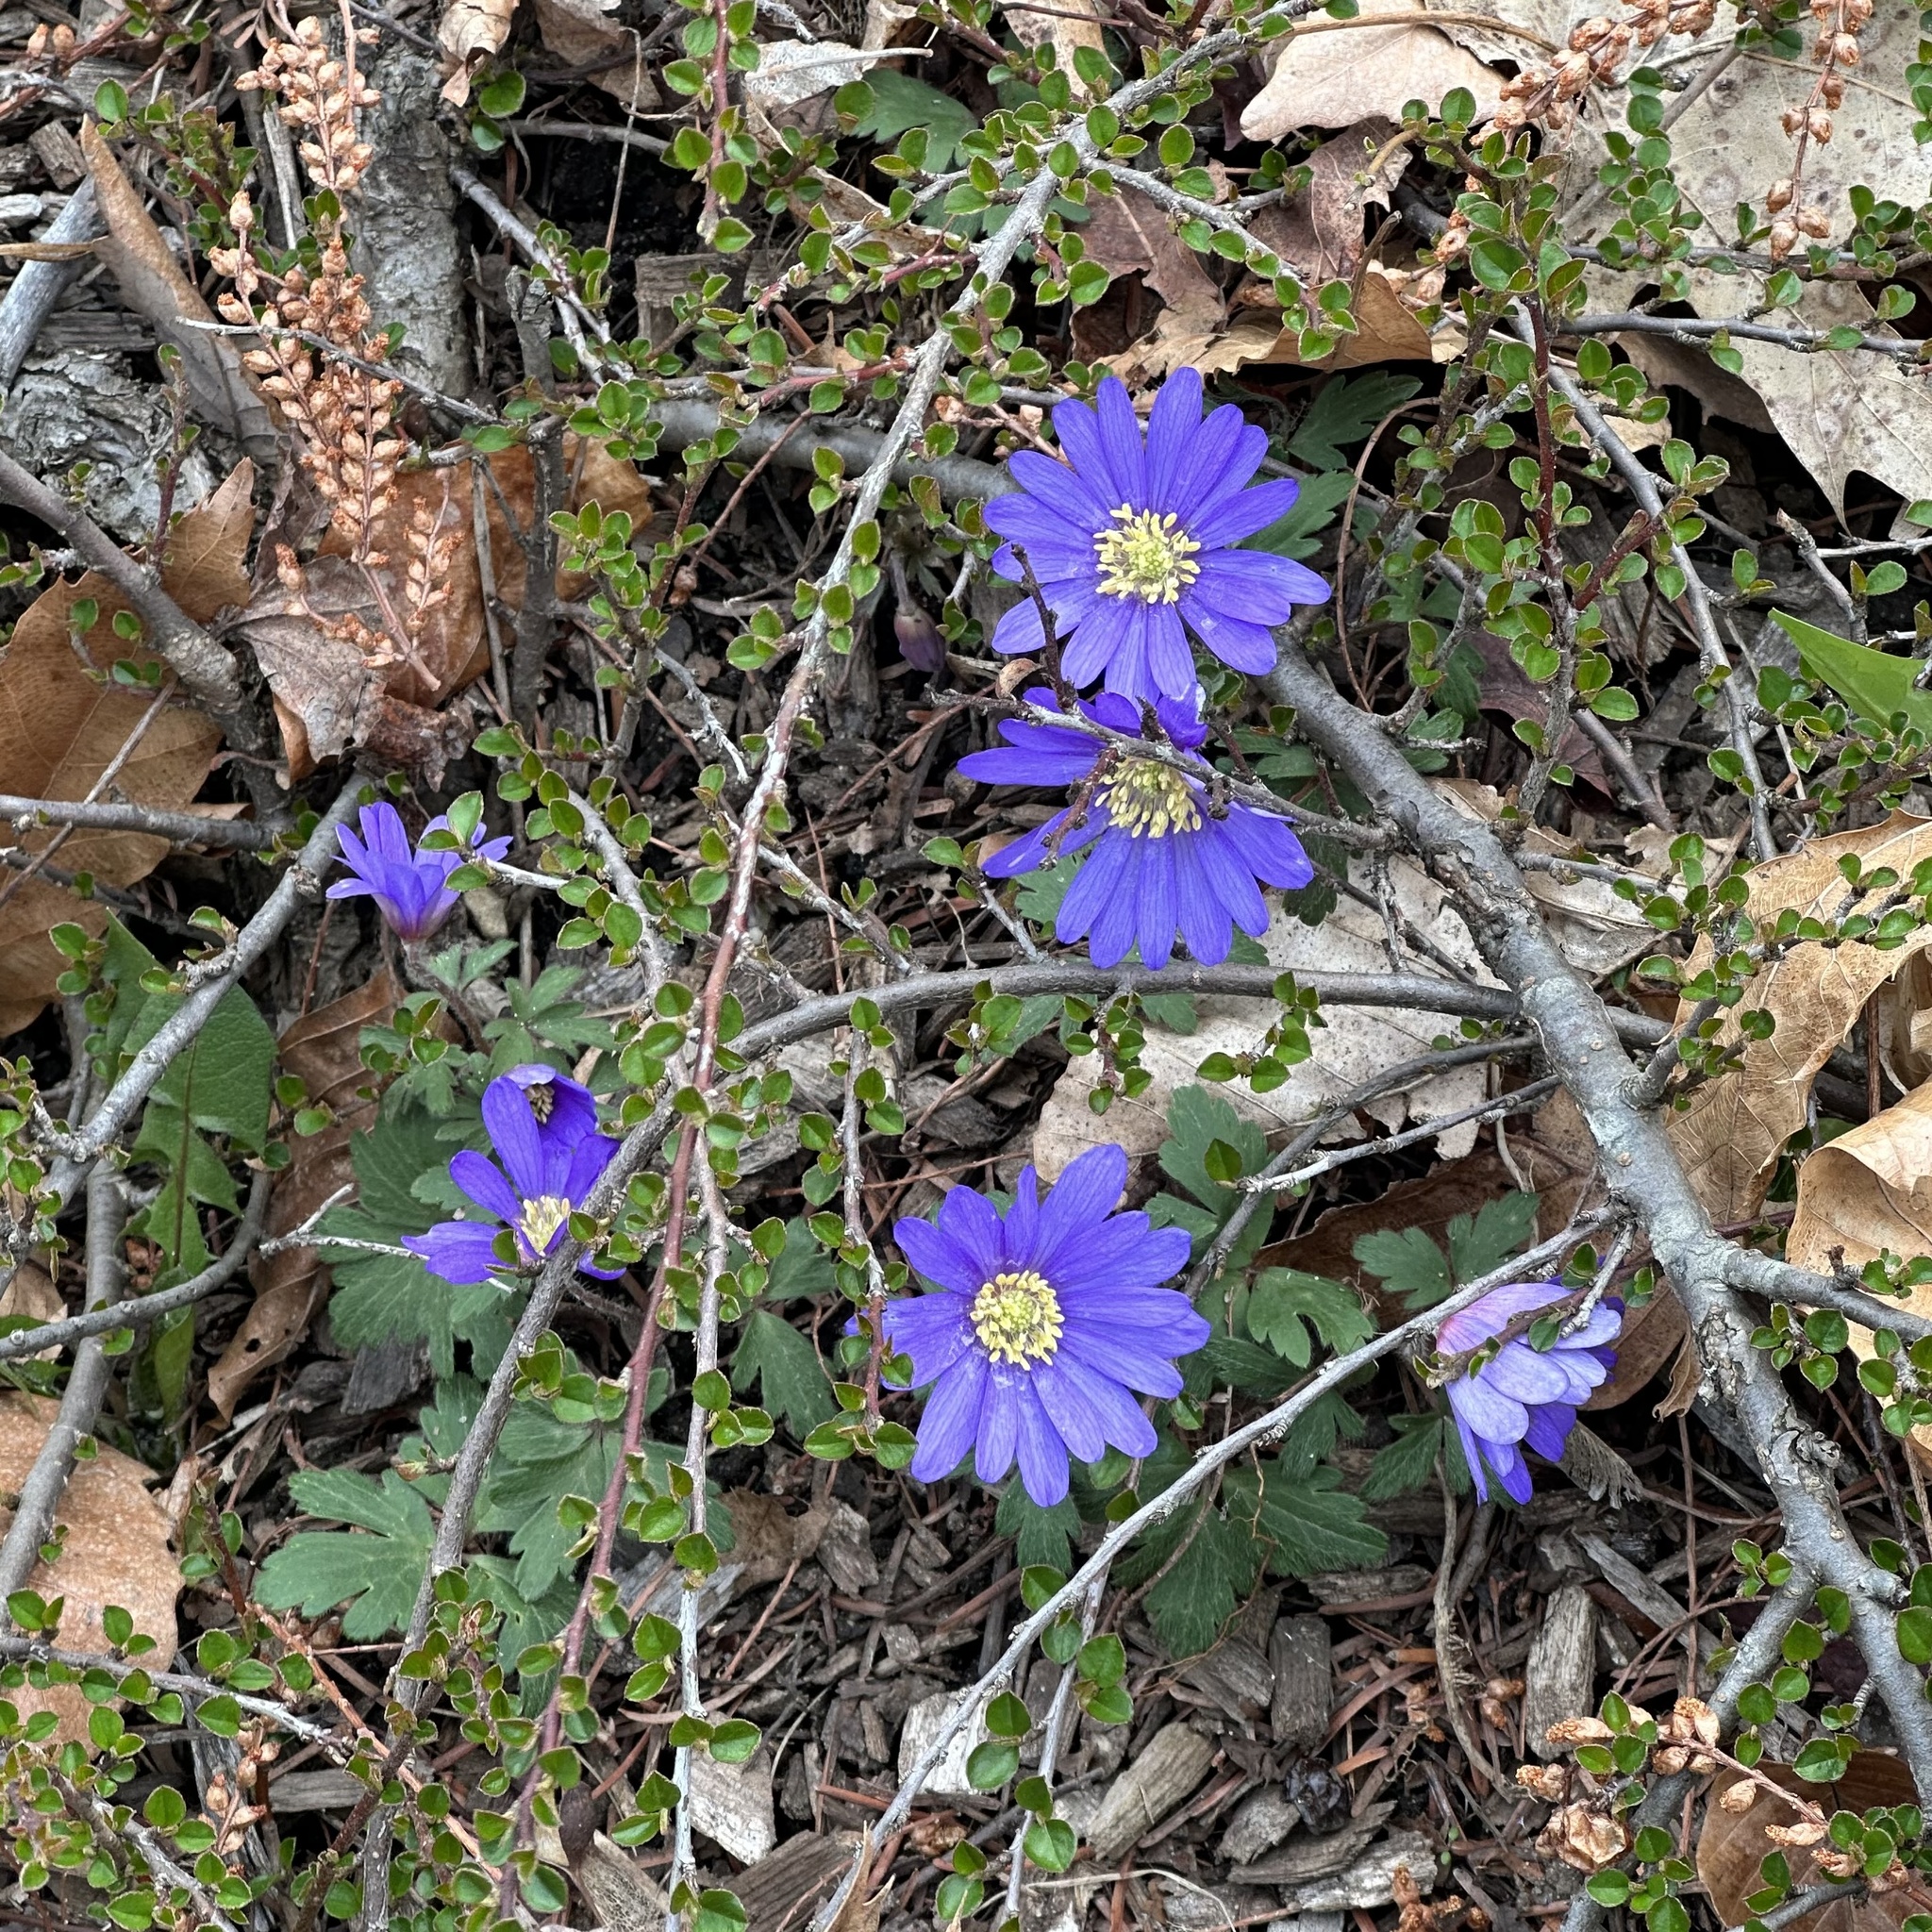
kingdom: Plantae
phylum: Tracheophyta
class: Magnoliopsida
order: Ranunculales
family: Ranunculaceae
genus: Anemone
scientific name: Anemone blanda
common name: Balkan anemone
